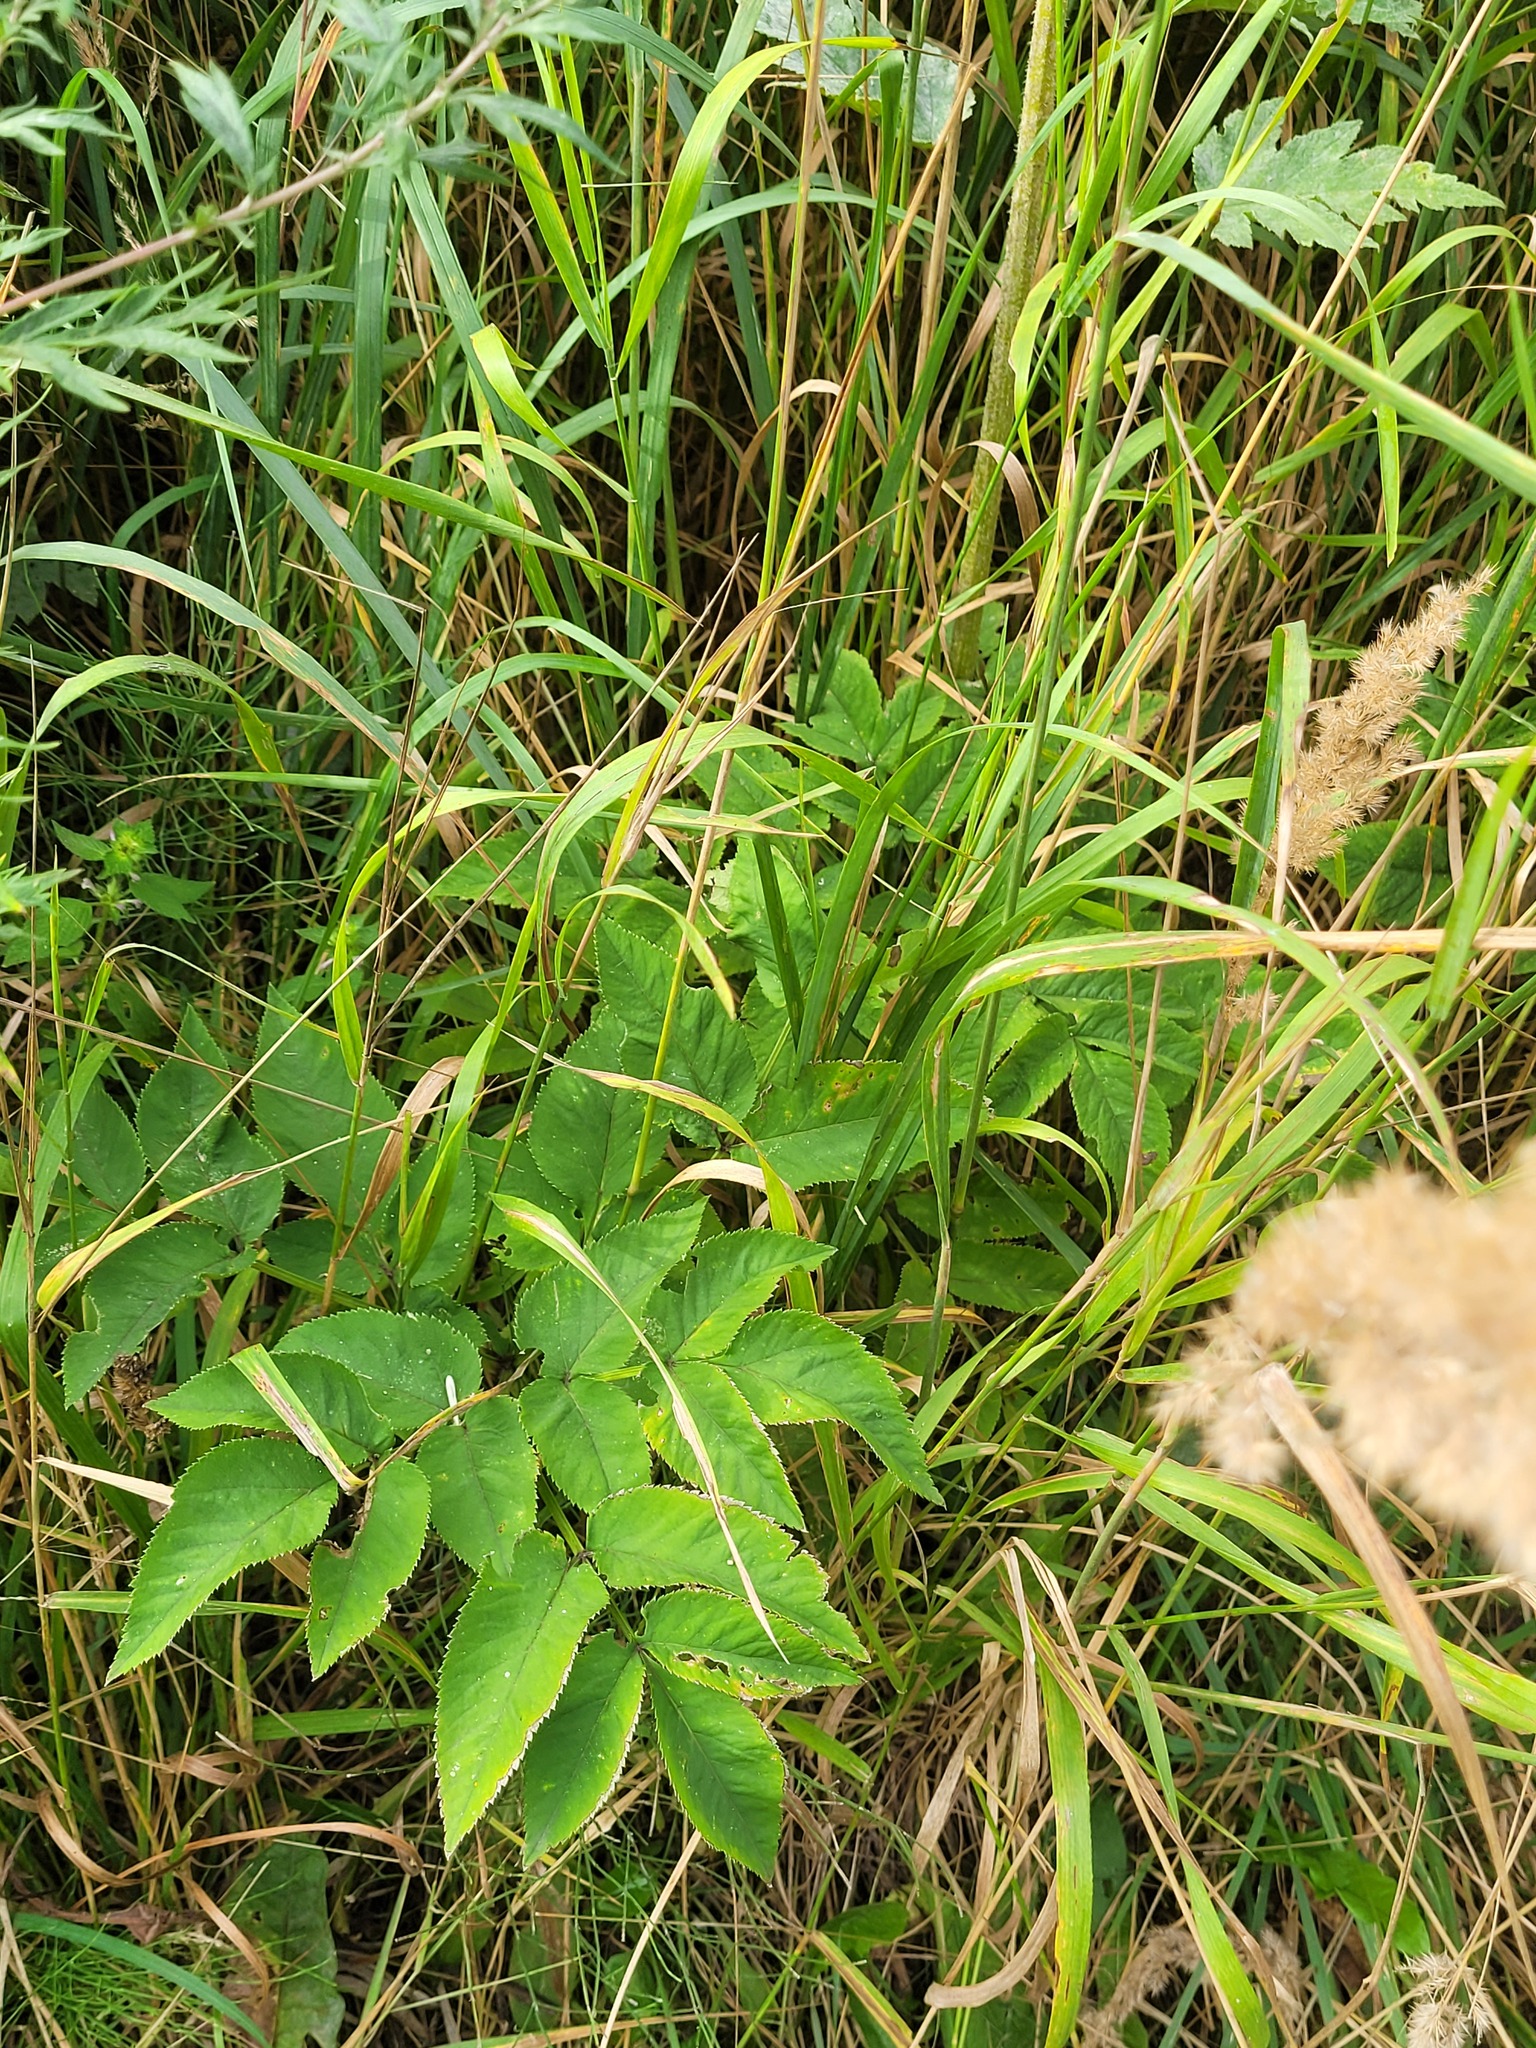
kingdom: Plantae
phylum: Tracheophyta
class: Magnoliopsida
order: Apiales
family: Apiaceae
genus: Angelica
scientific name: Angelica sylvestris
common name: Wild angelica
